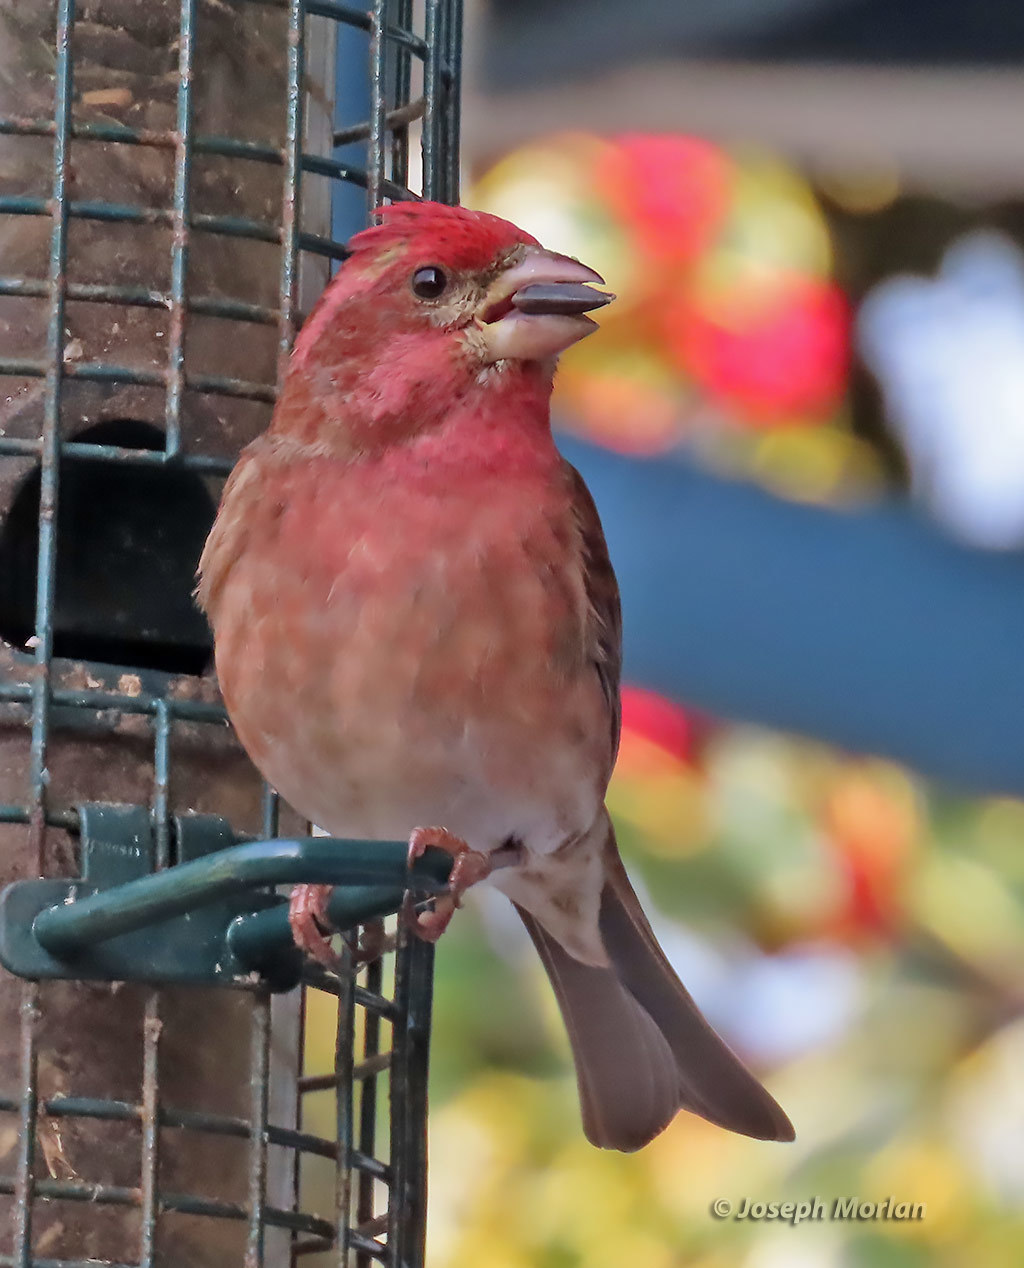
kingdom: Animalia
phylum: Chordata
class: Aves
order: Passeriformes
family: Fringillidae
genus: Haemorhous
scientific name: Haemorhous purpureus
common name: Purple finch
